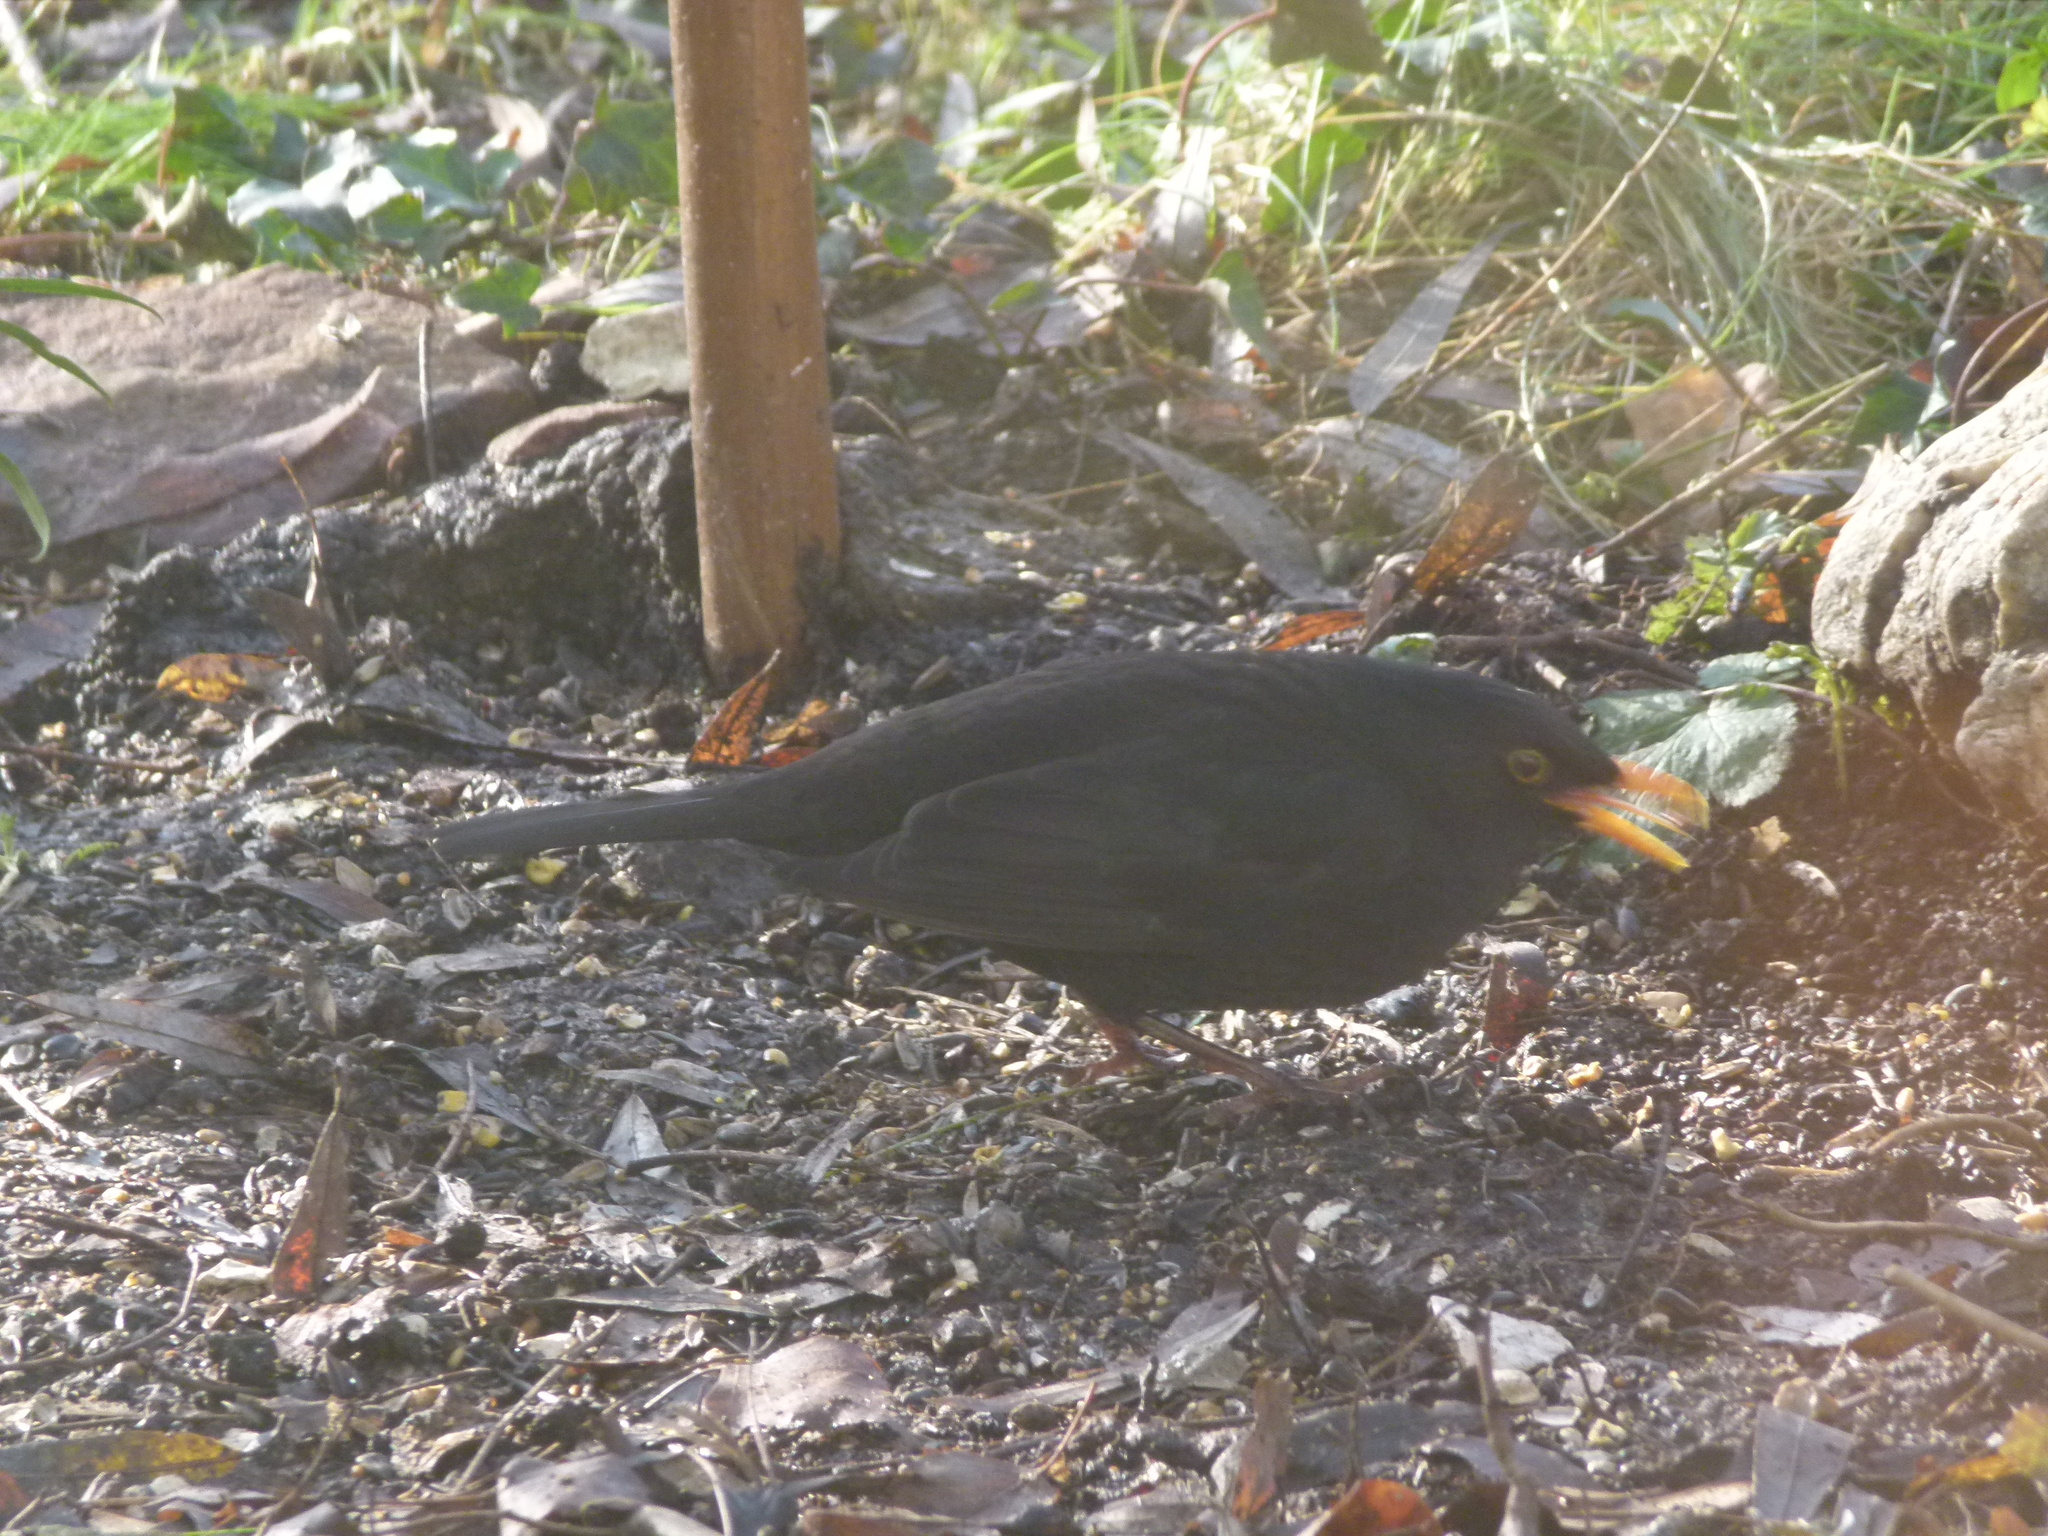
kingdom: Animalia
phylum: Chordata
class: Aves
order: Passeriformes
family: Turdidae
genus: Turdus
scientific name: Turdus merula
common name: Common blackbird
